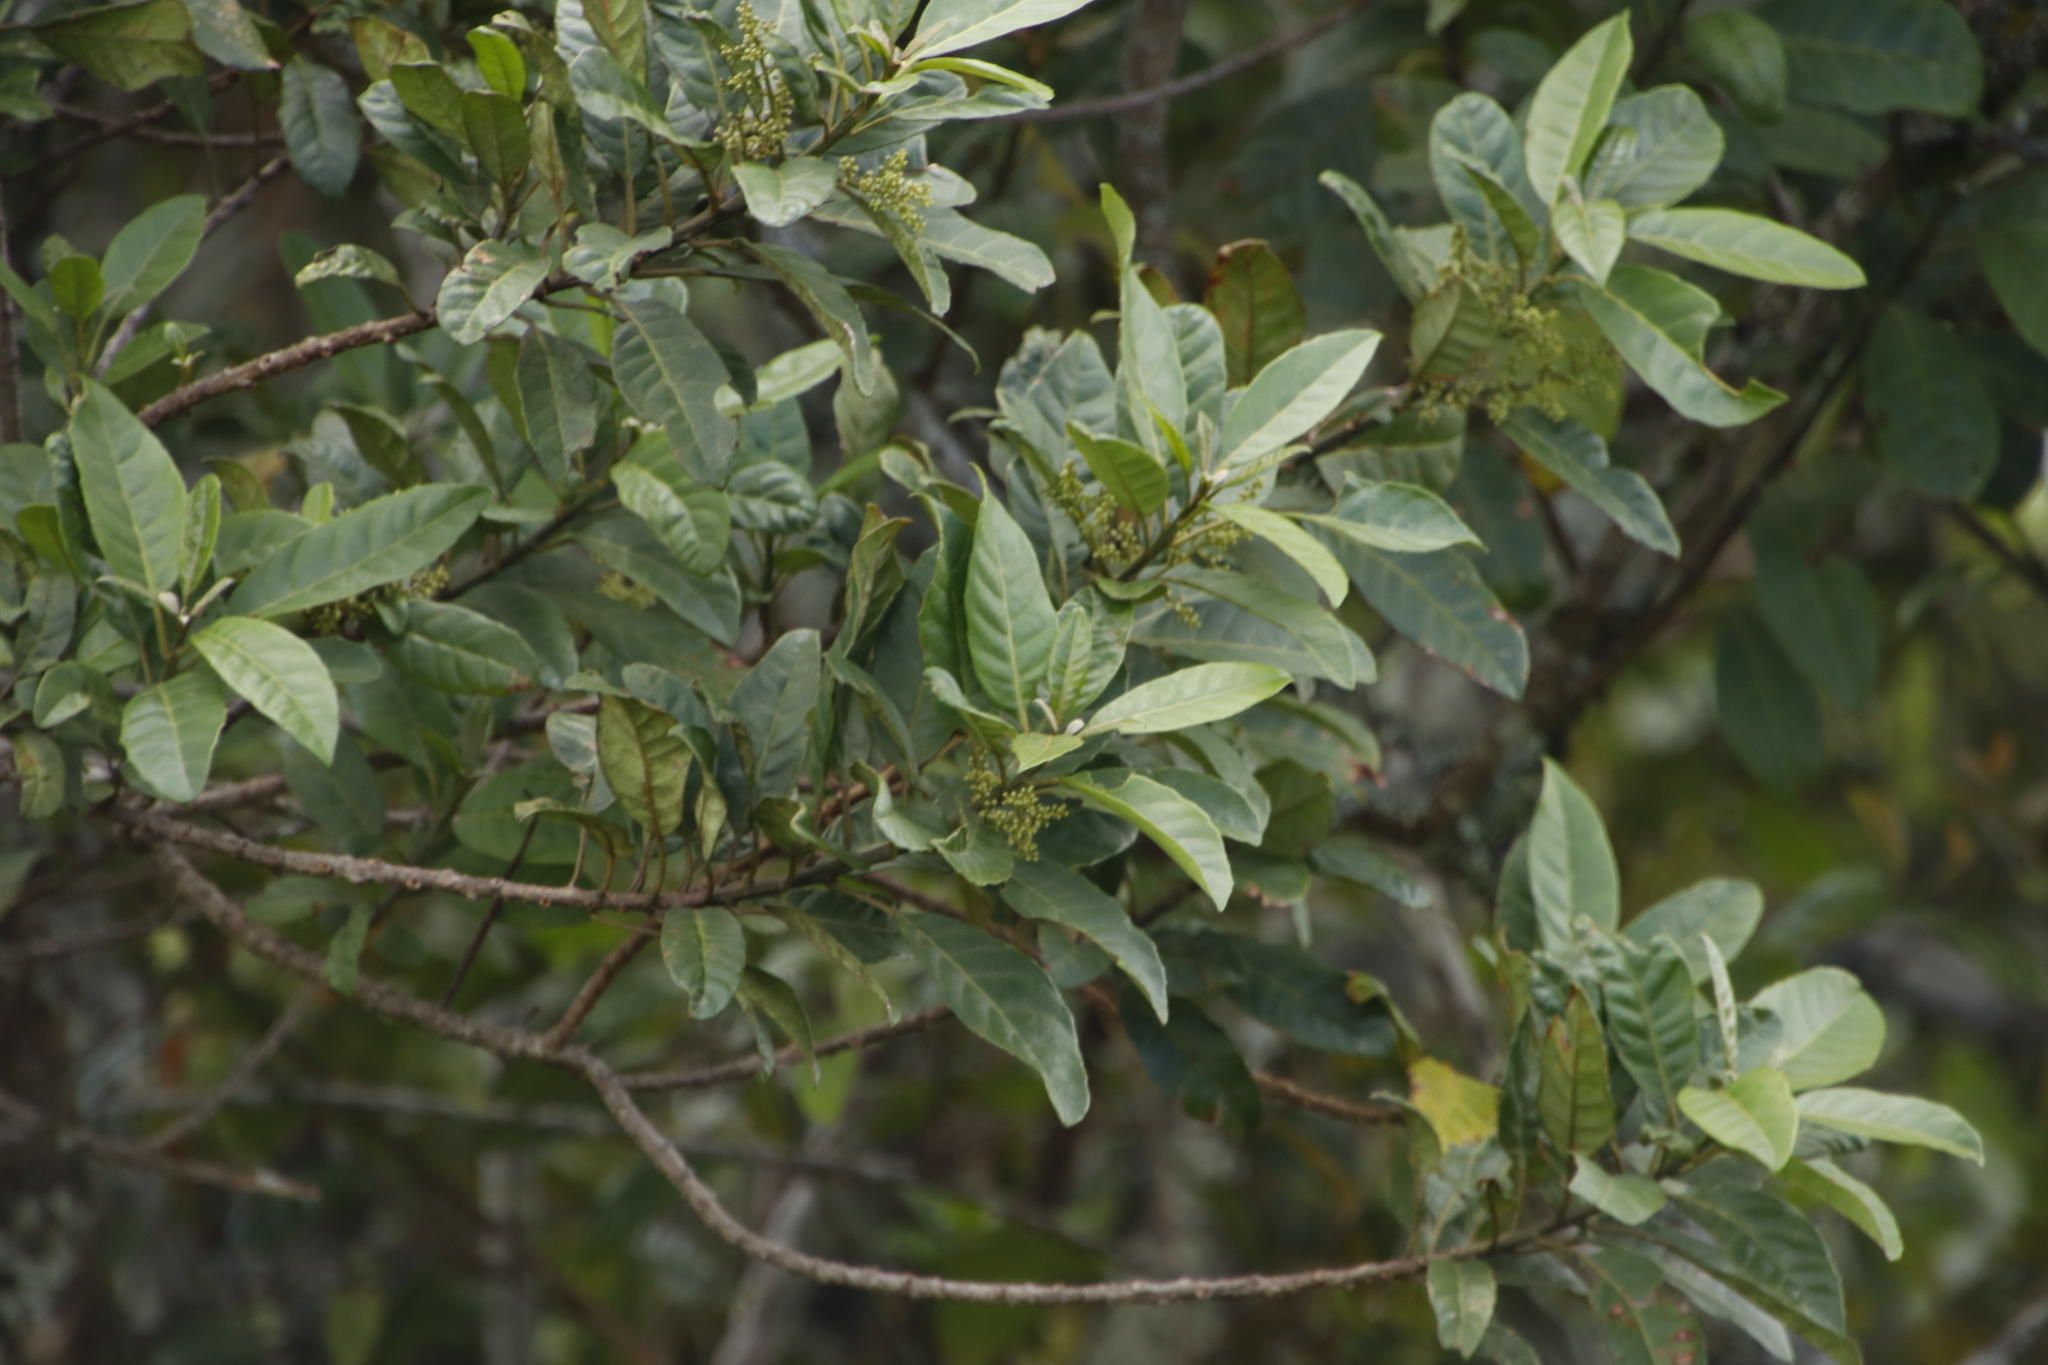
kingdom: Plantae
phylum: Tracheophyta
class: Magnoliopsida
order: Ericales
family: Primulaceae
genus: Maesa
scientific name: Maesa lanceolata
